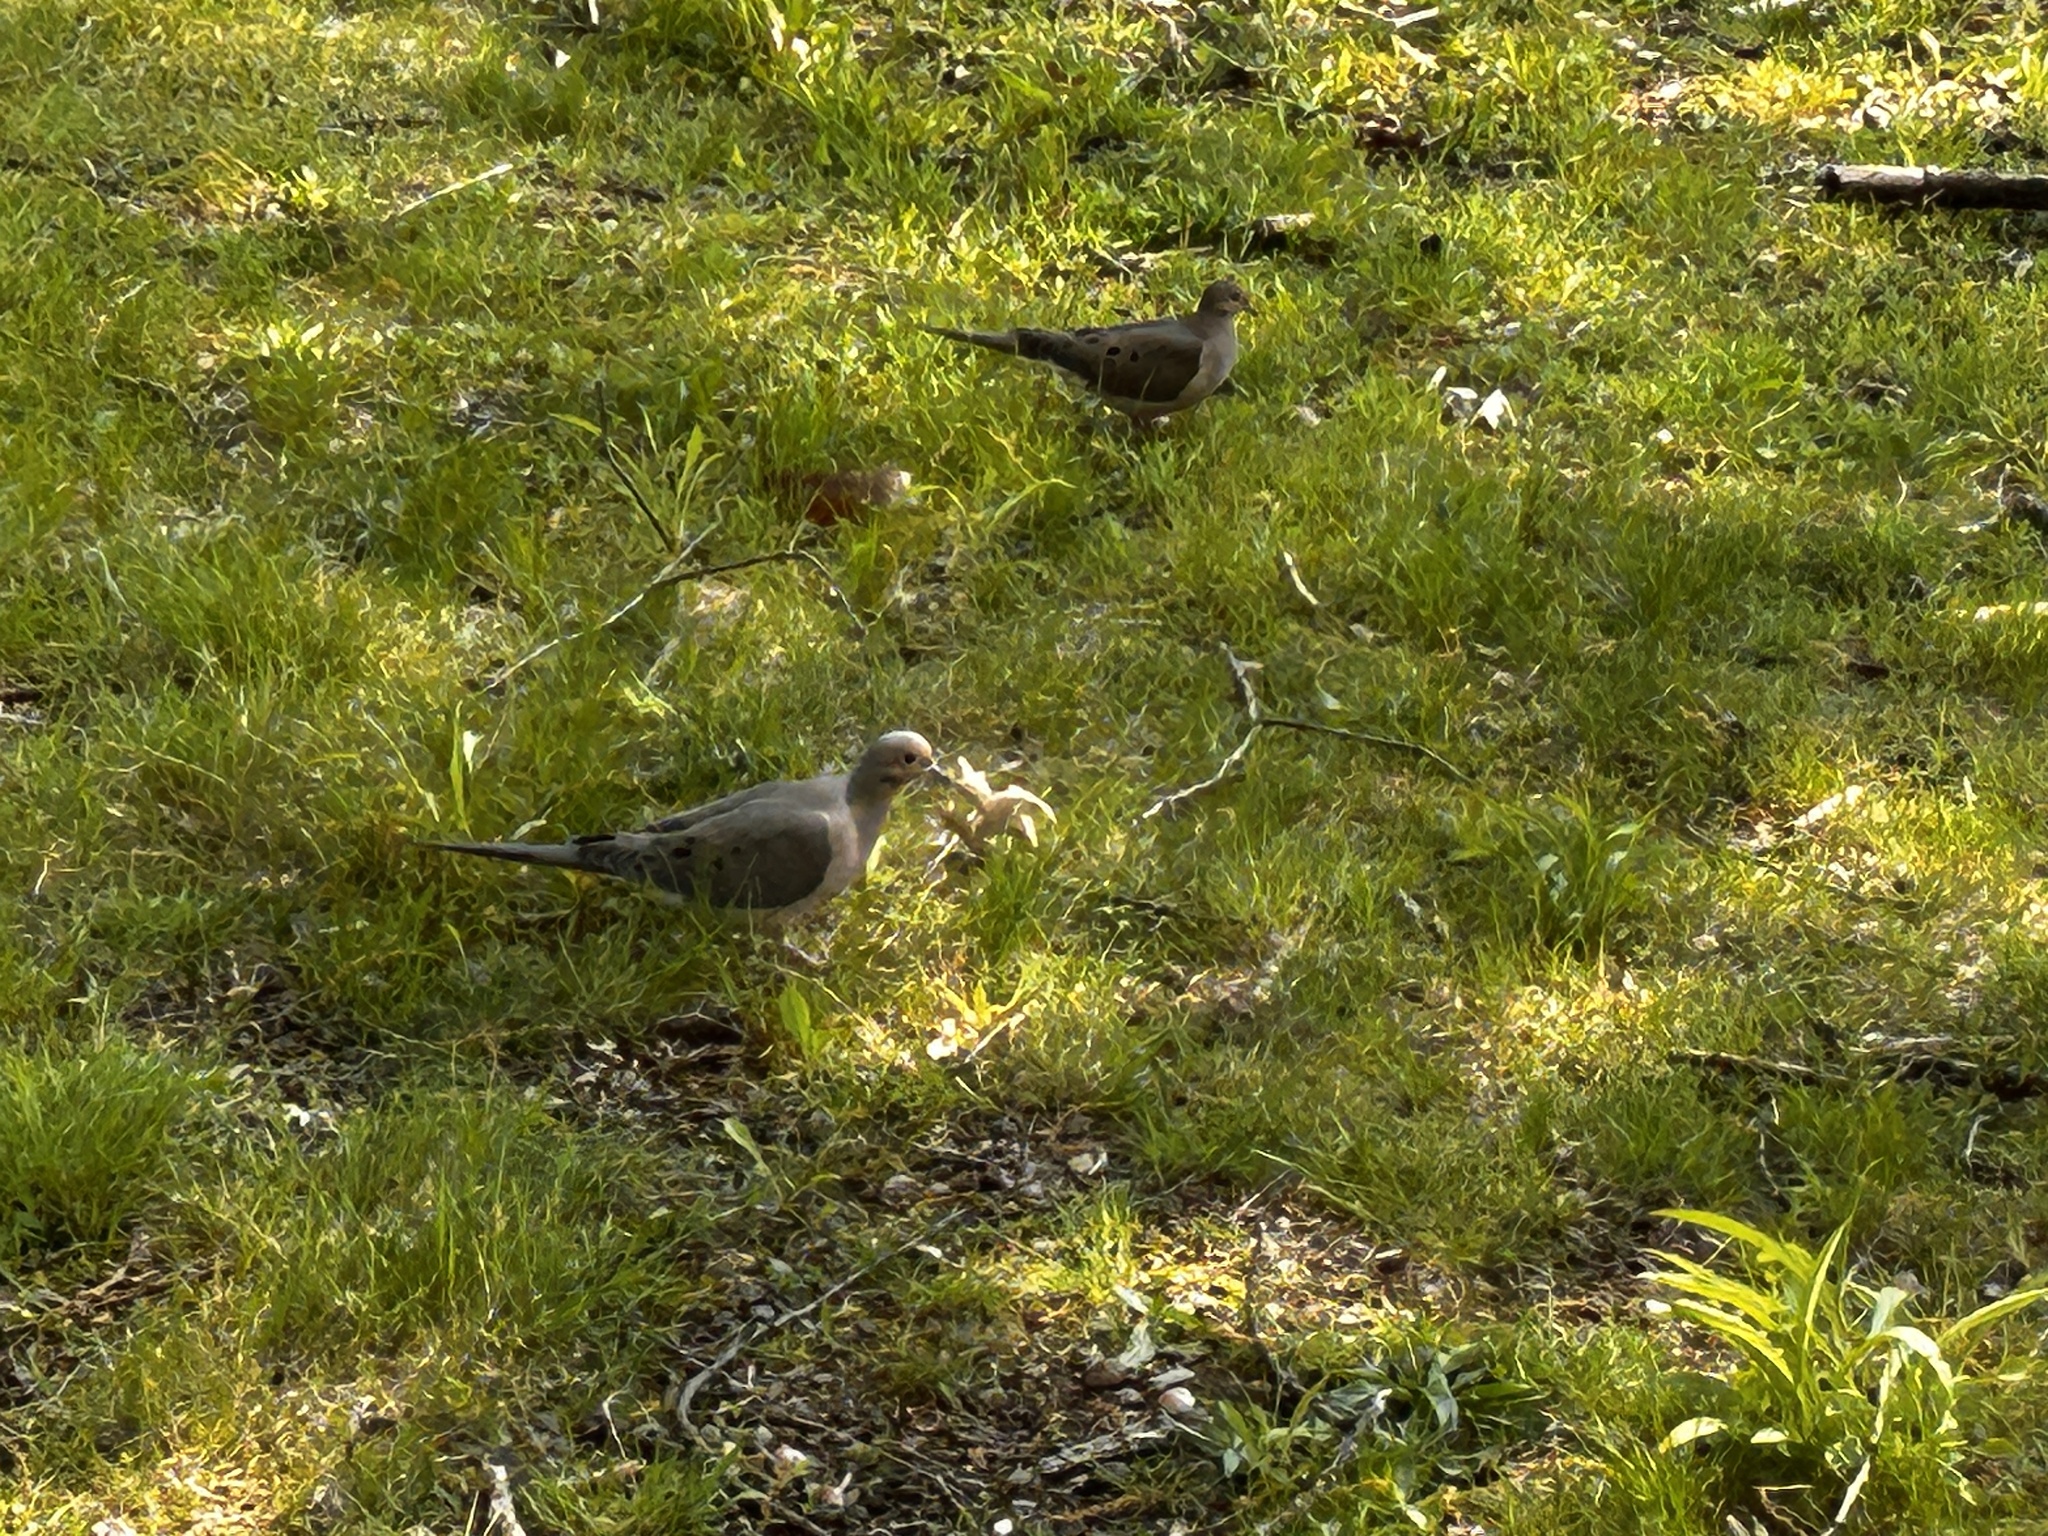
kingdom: Animalia
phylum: Chordata
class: Aves
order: Columbiformes
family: Columbidae
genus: Zenaida
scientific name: Zenaida macroura
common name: Mourning dove
